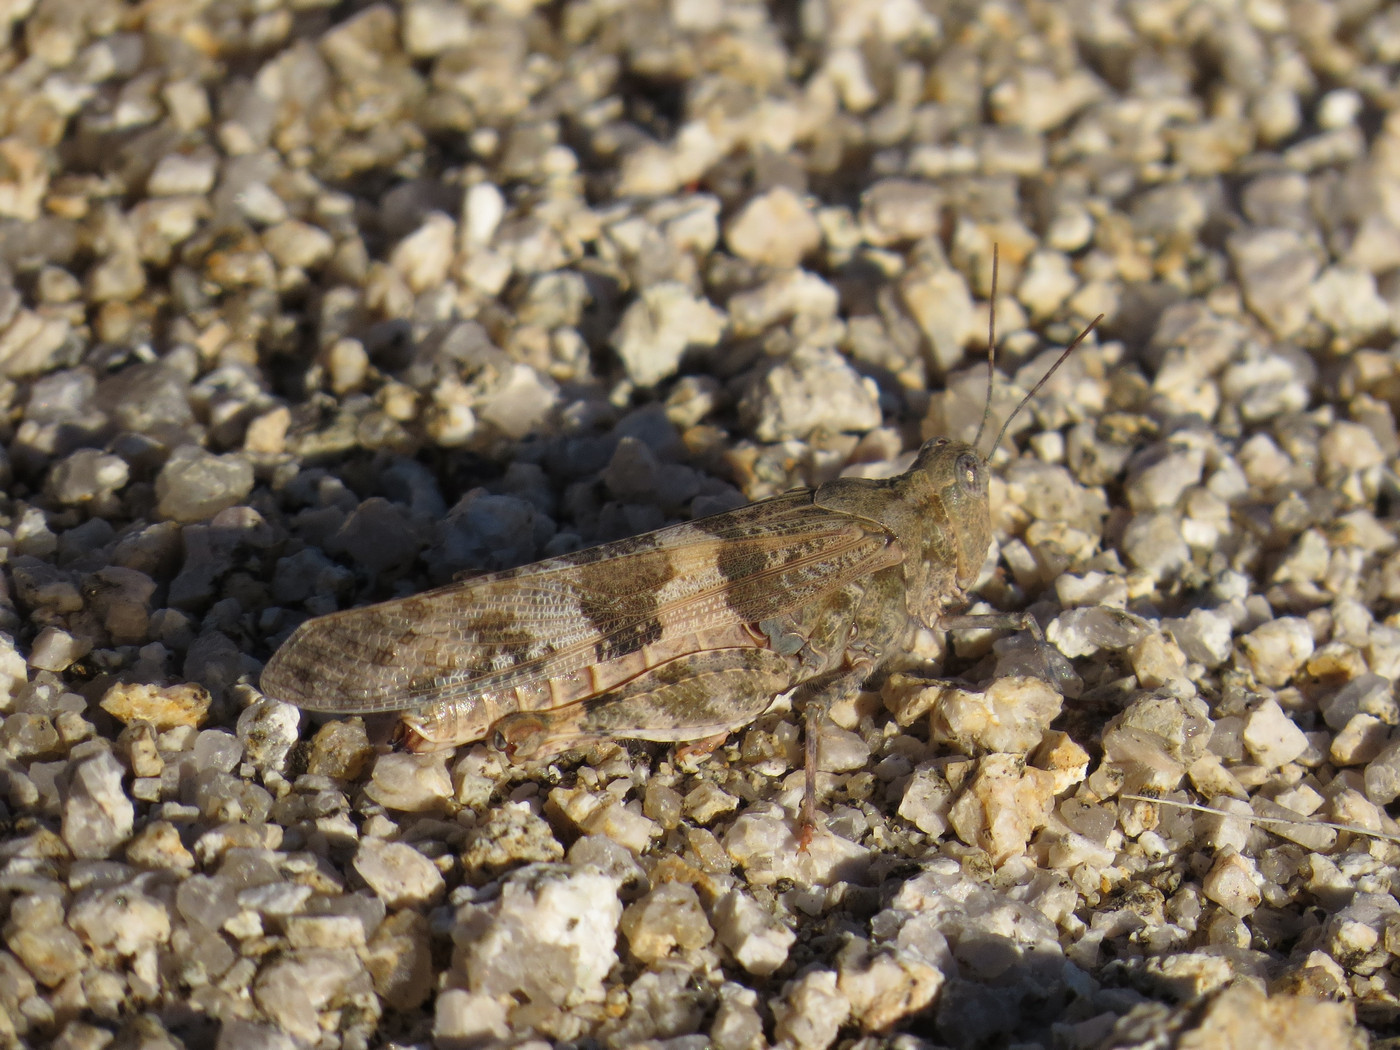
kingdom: Animalia
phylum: Arthropoda
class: Insecta
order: Orthoptera
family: Acrididae
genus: Trimerotropis
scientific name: Trimerotropis pallidipennis
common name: Pallid-winged grasshopper
